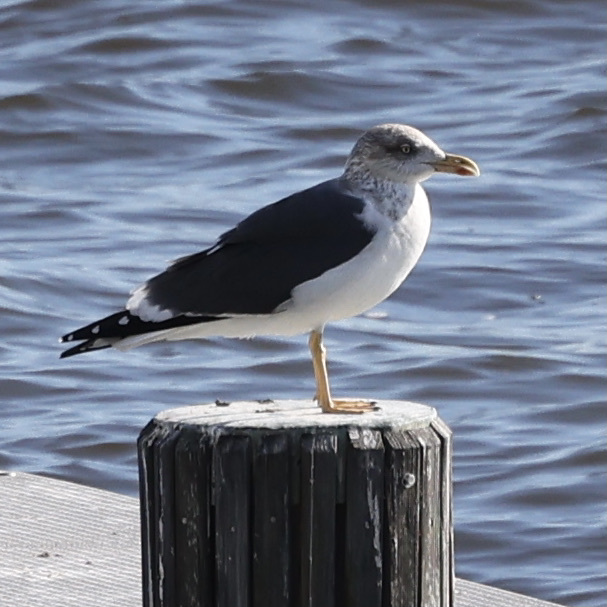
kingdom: Animalia
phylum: Chordata
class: Aves
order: Charadriiformes
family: Laridae
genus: Larus
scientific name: Larus fuscus
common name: Lesser black-backed gull
